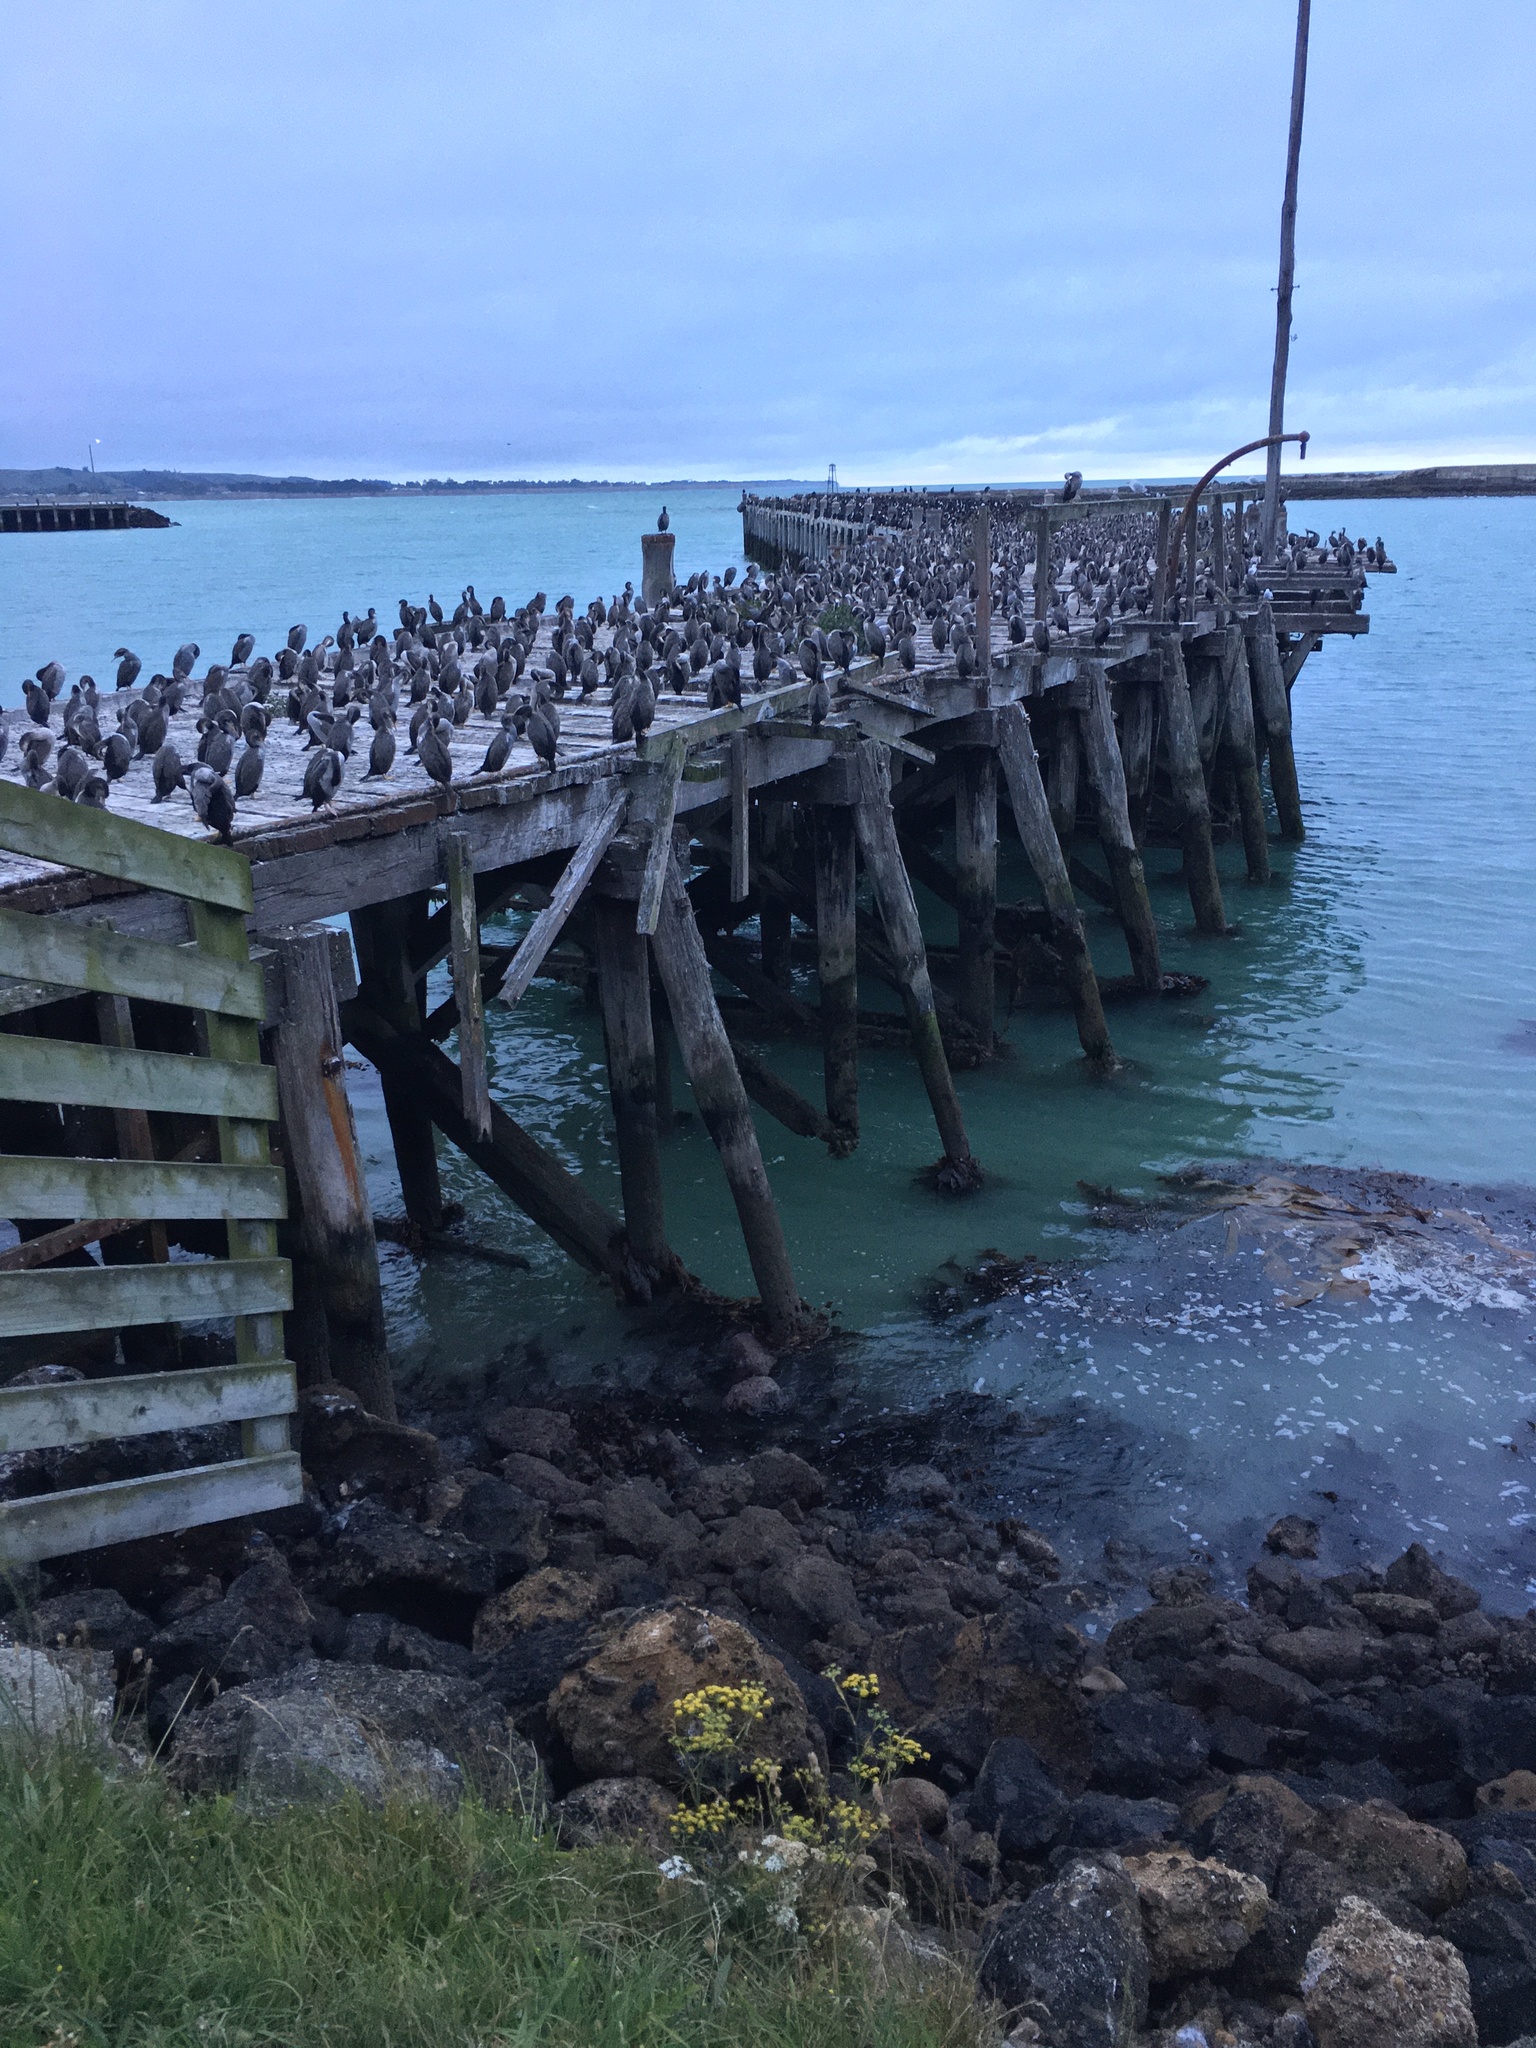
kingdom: Animalia
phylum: Chordata
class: Aves
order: Suliformes
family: Phalacrocoracidae
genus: Phalacrocorax
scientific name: Phalacrocorax punctatus
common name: Spotted shag
